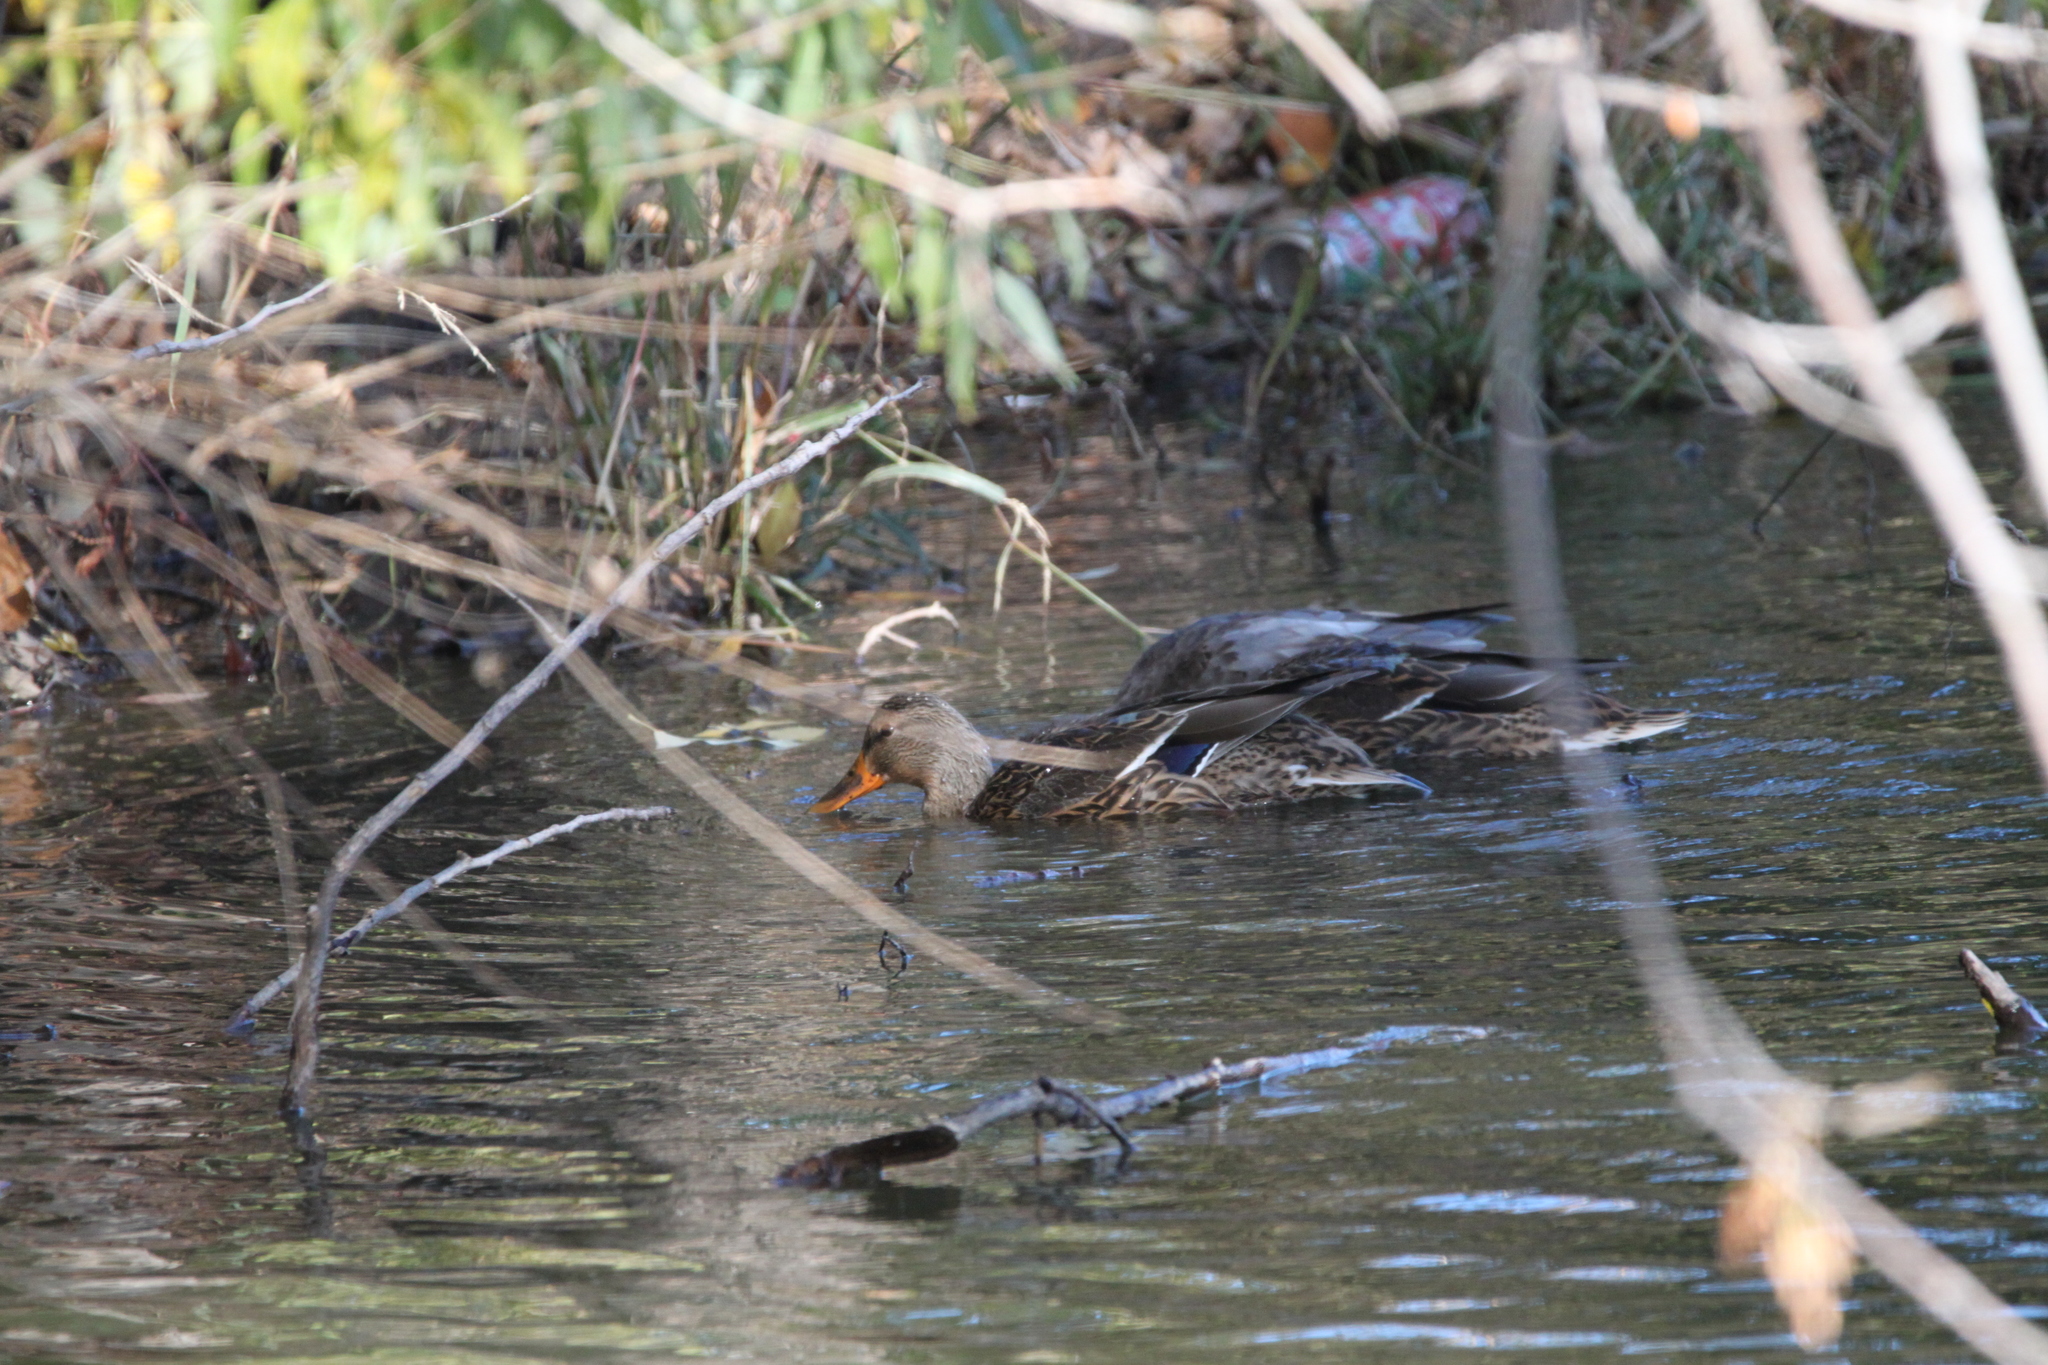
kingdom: Animalia
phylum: Chordata
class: Aves
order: Anseriformes
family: Anatidae
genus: Anas
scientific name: Anas platyrhynchos
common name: Mallard
